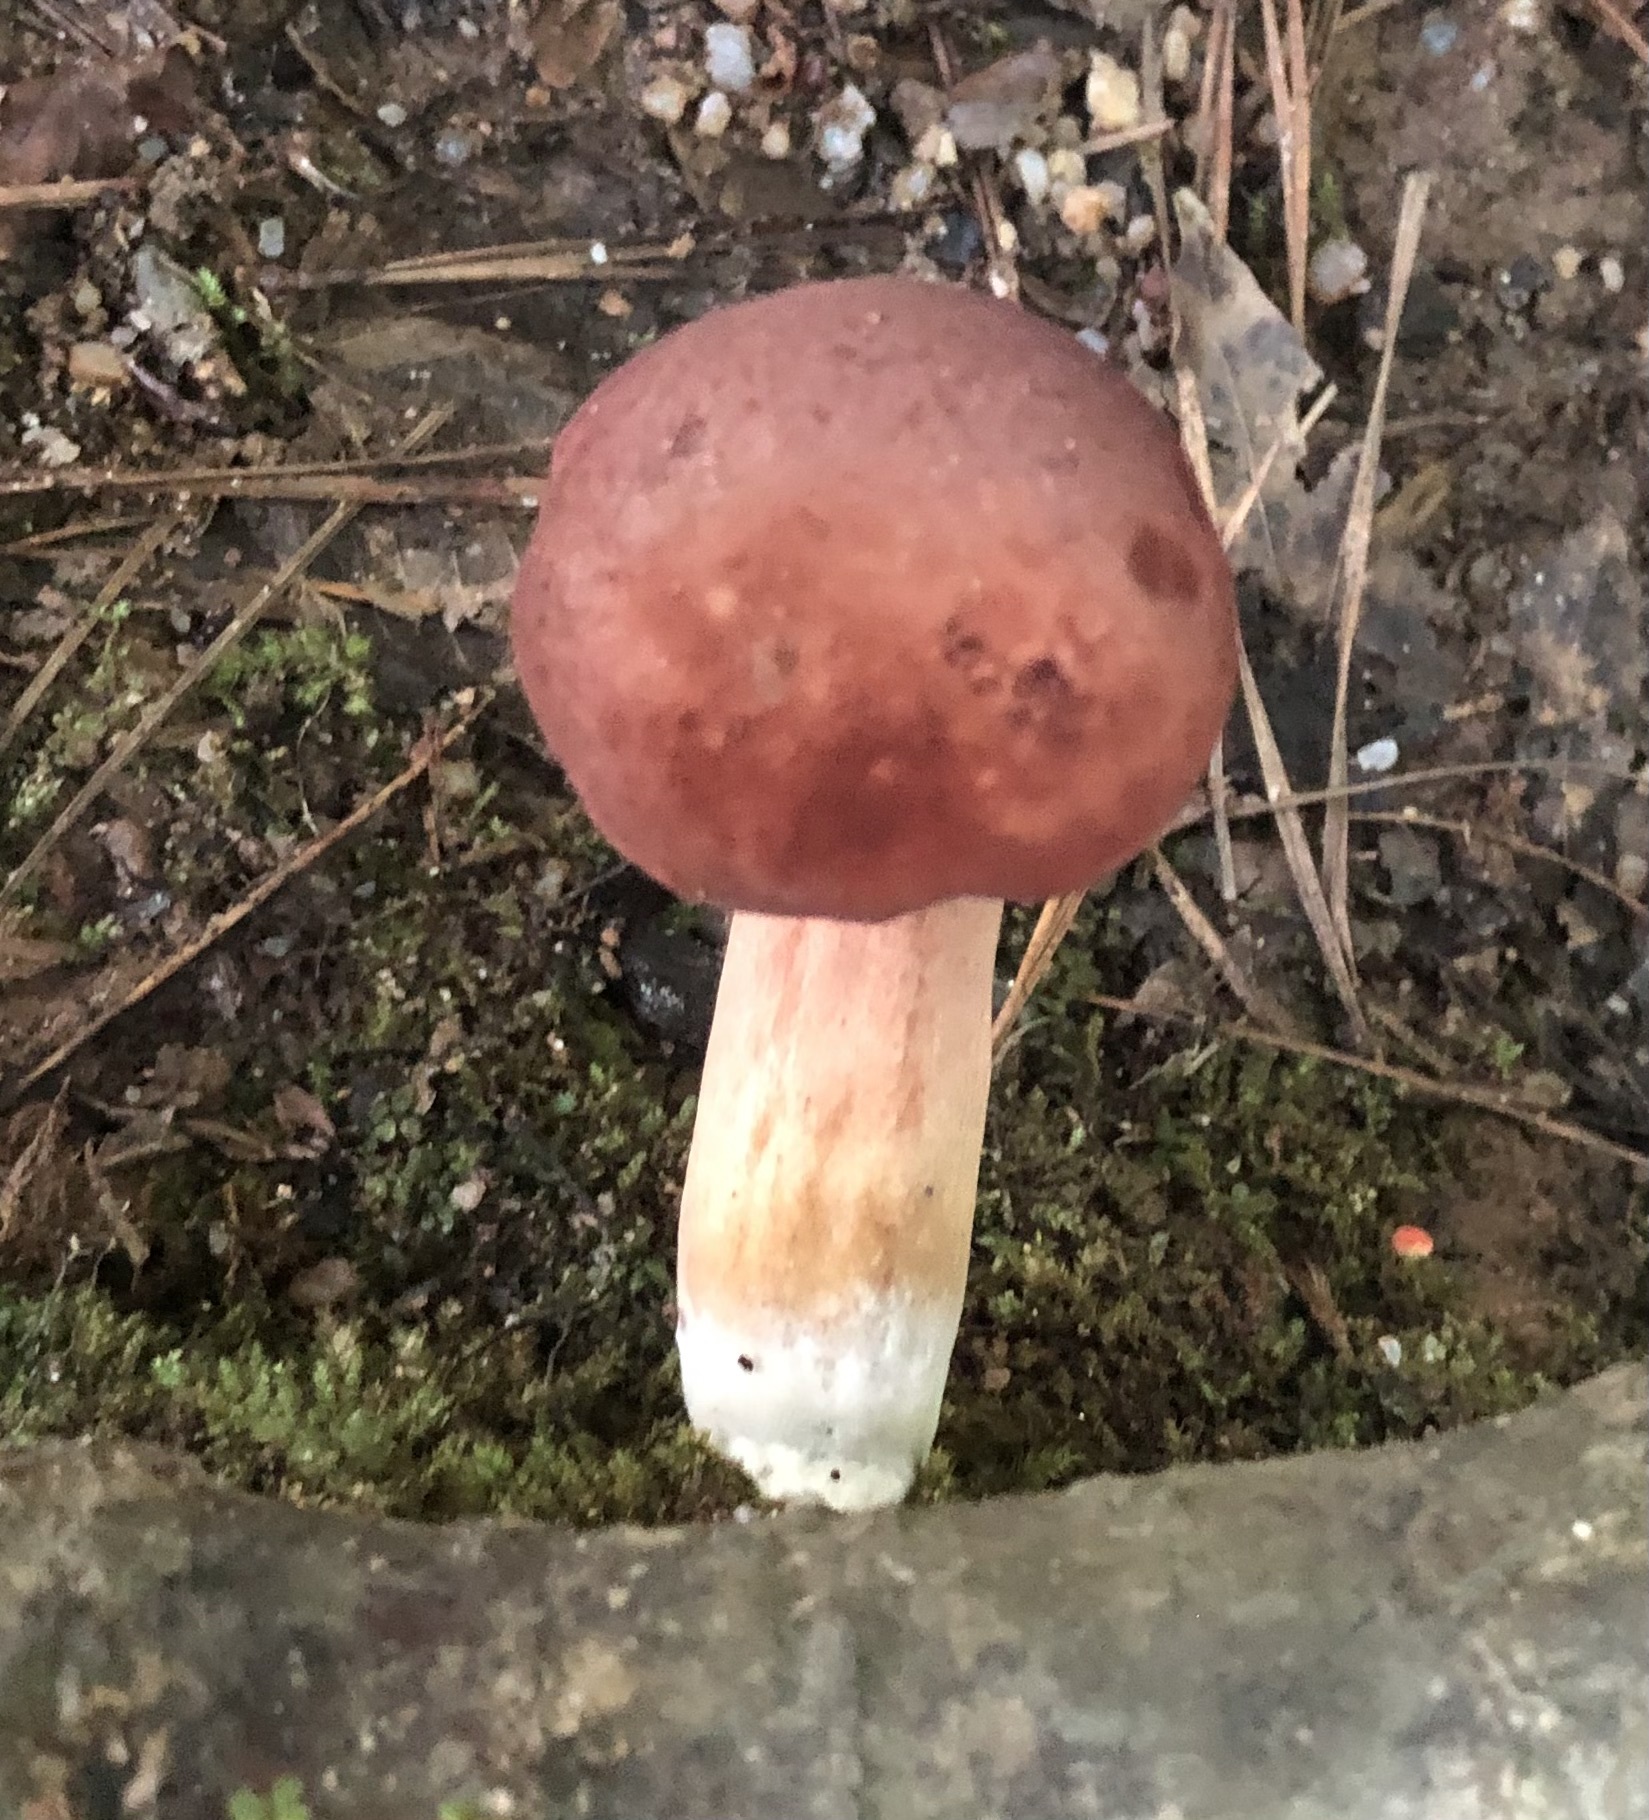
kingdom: Fungi
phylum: Basidiomycota
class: Agaricomycetes
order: Boletales
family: Boletaceae
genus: Xanthoconium
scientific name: Xanthoconium purpureum
